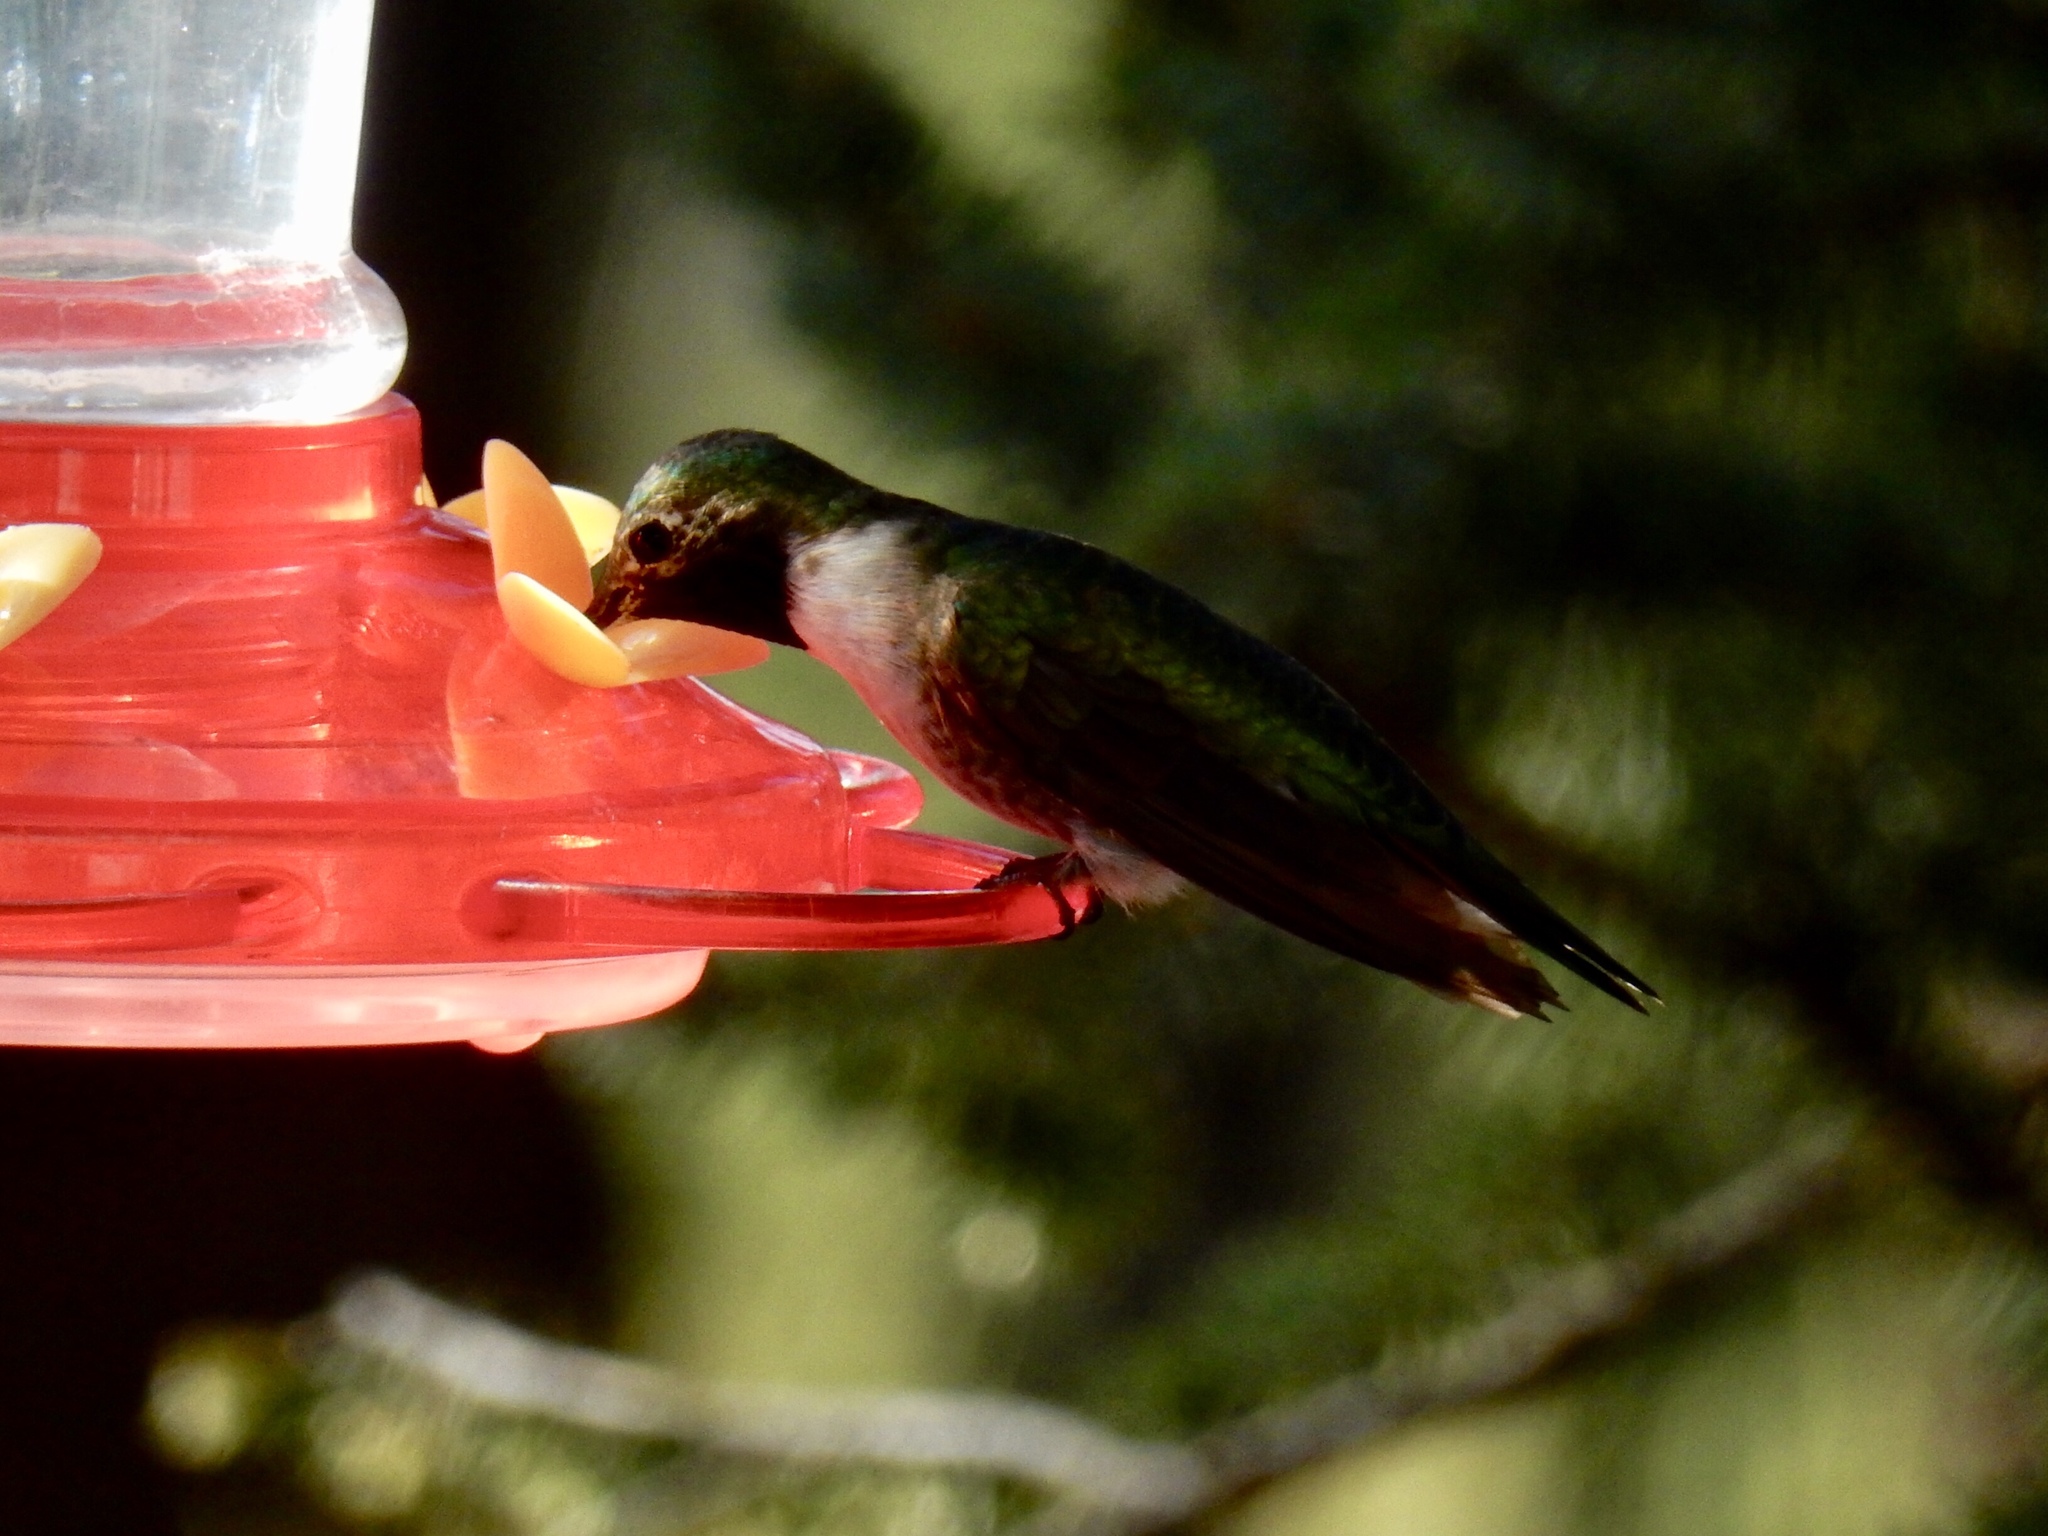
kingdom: Animalia
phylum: Chordata
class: Aves
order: Apodiformes
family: Trochilidae
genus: Selasphorus
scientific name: Selasphorus platycercus
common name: Broad-tailed hummingbird
